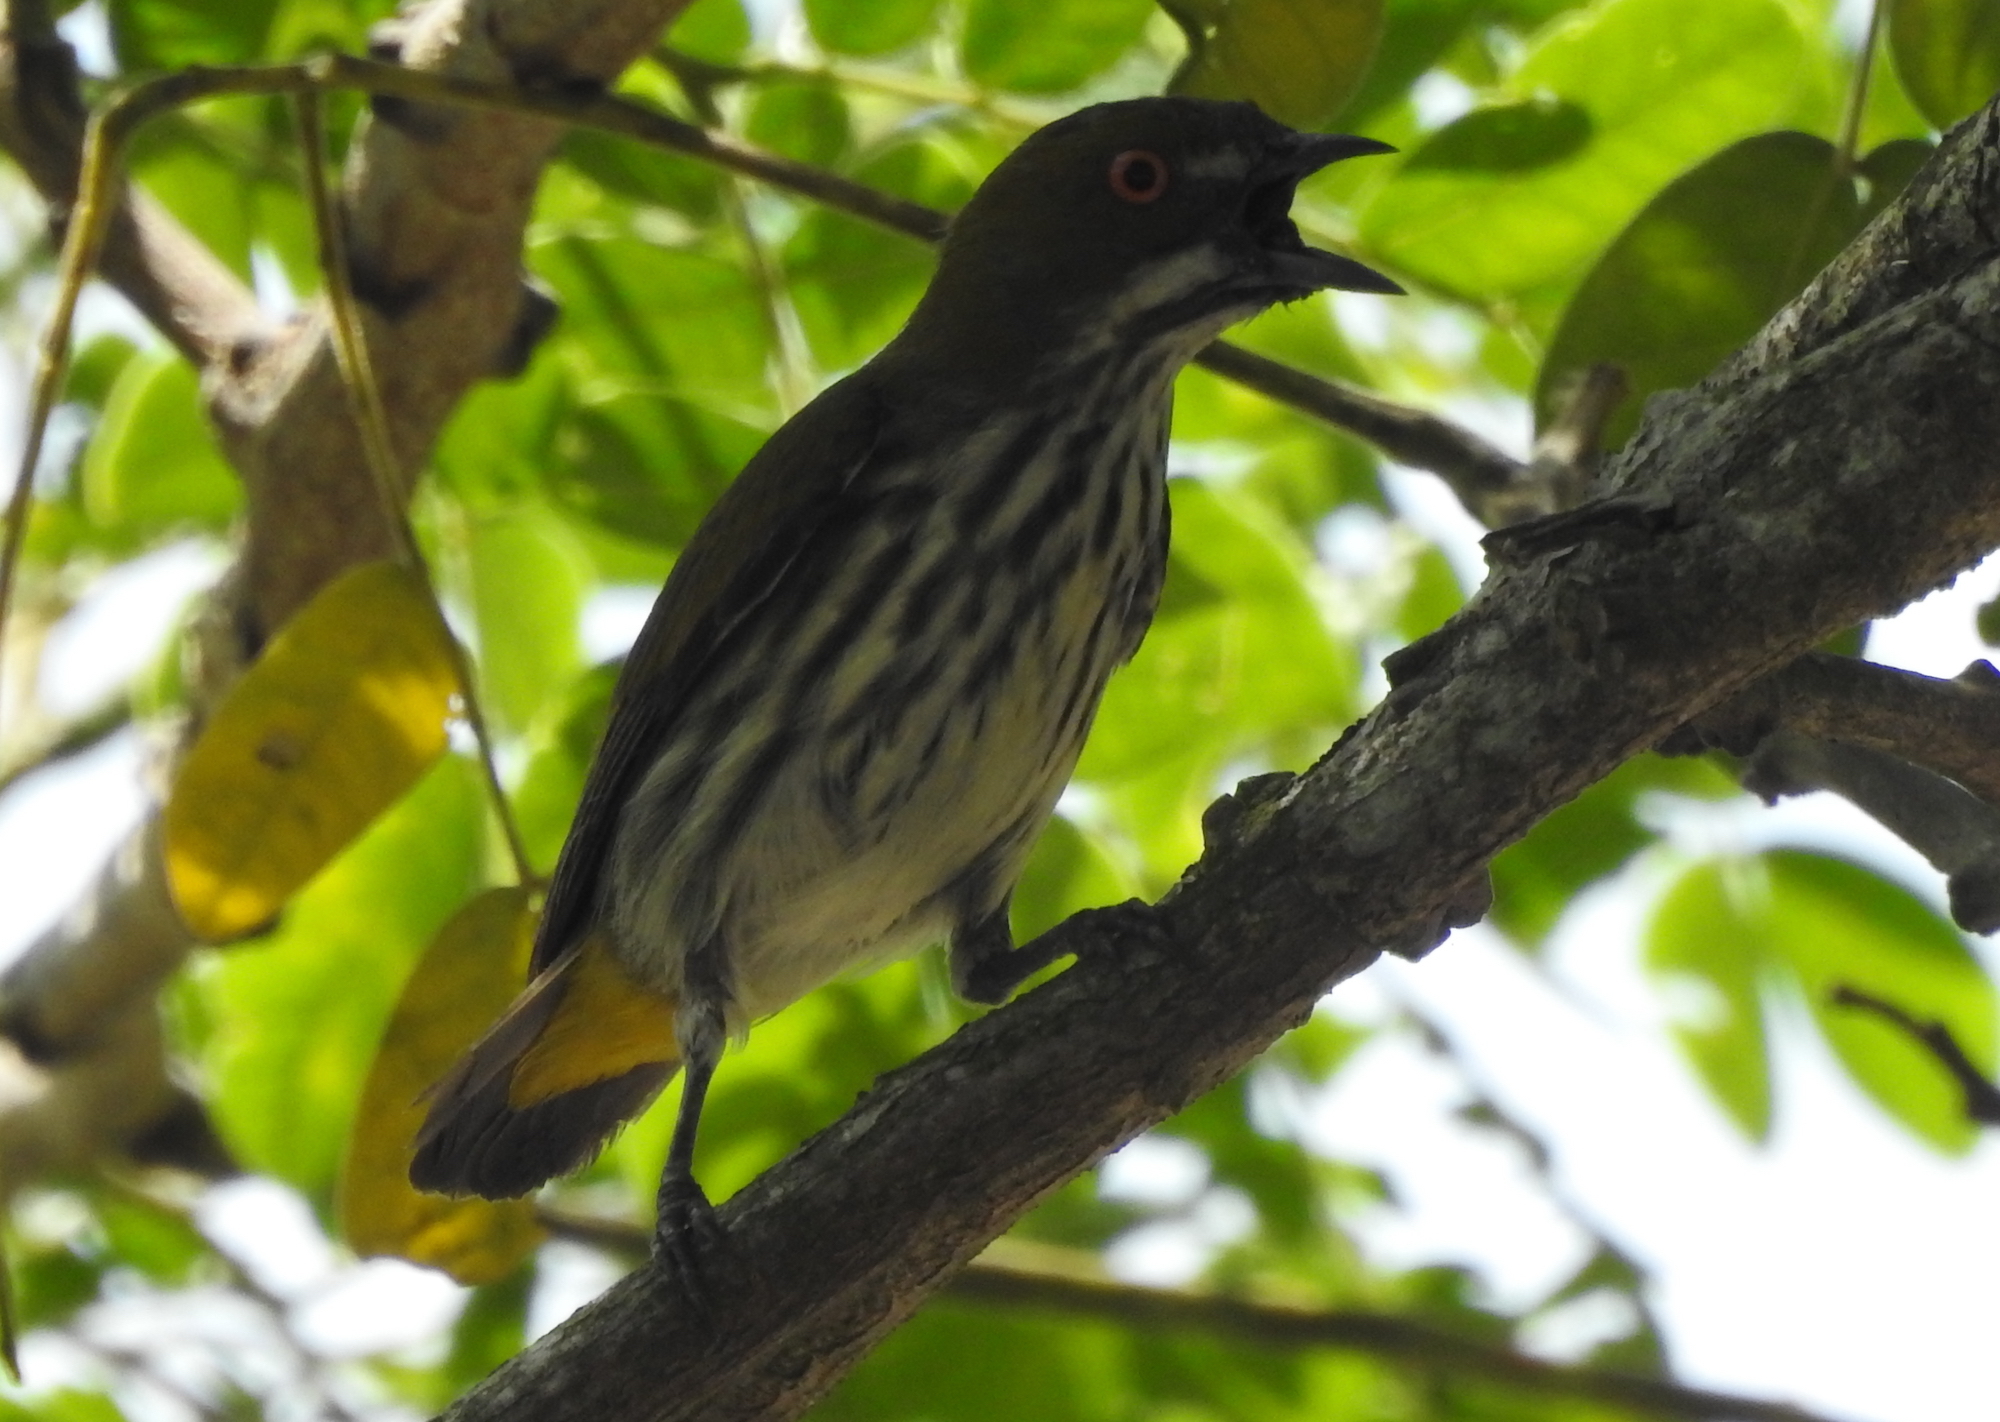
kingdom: Animalia
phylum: Chordata
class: Aves
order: Passeriformes
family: Dicaeidae
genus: Dicaeum
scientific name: Dicaeum chrysorrheum
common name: Yellow-vented flowerpecker
